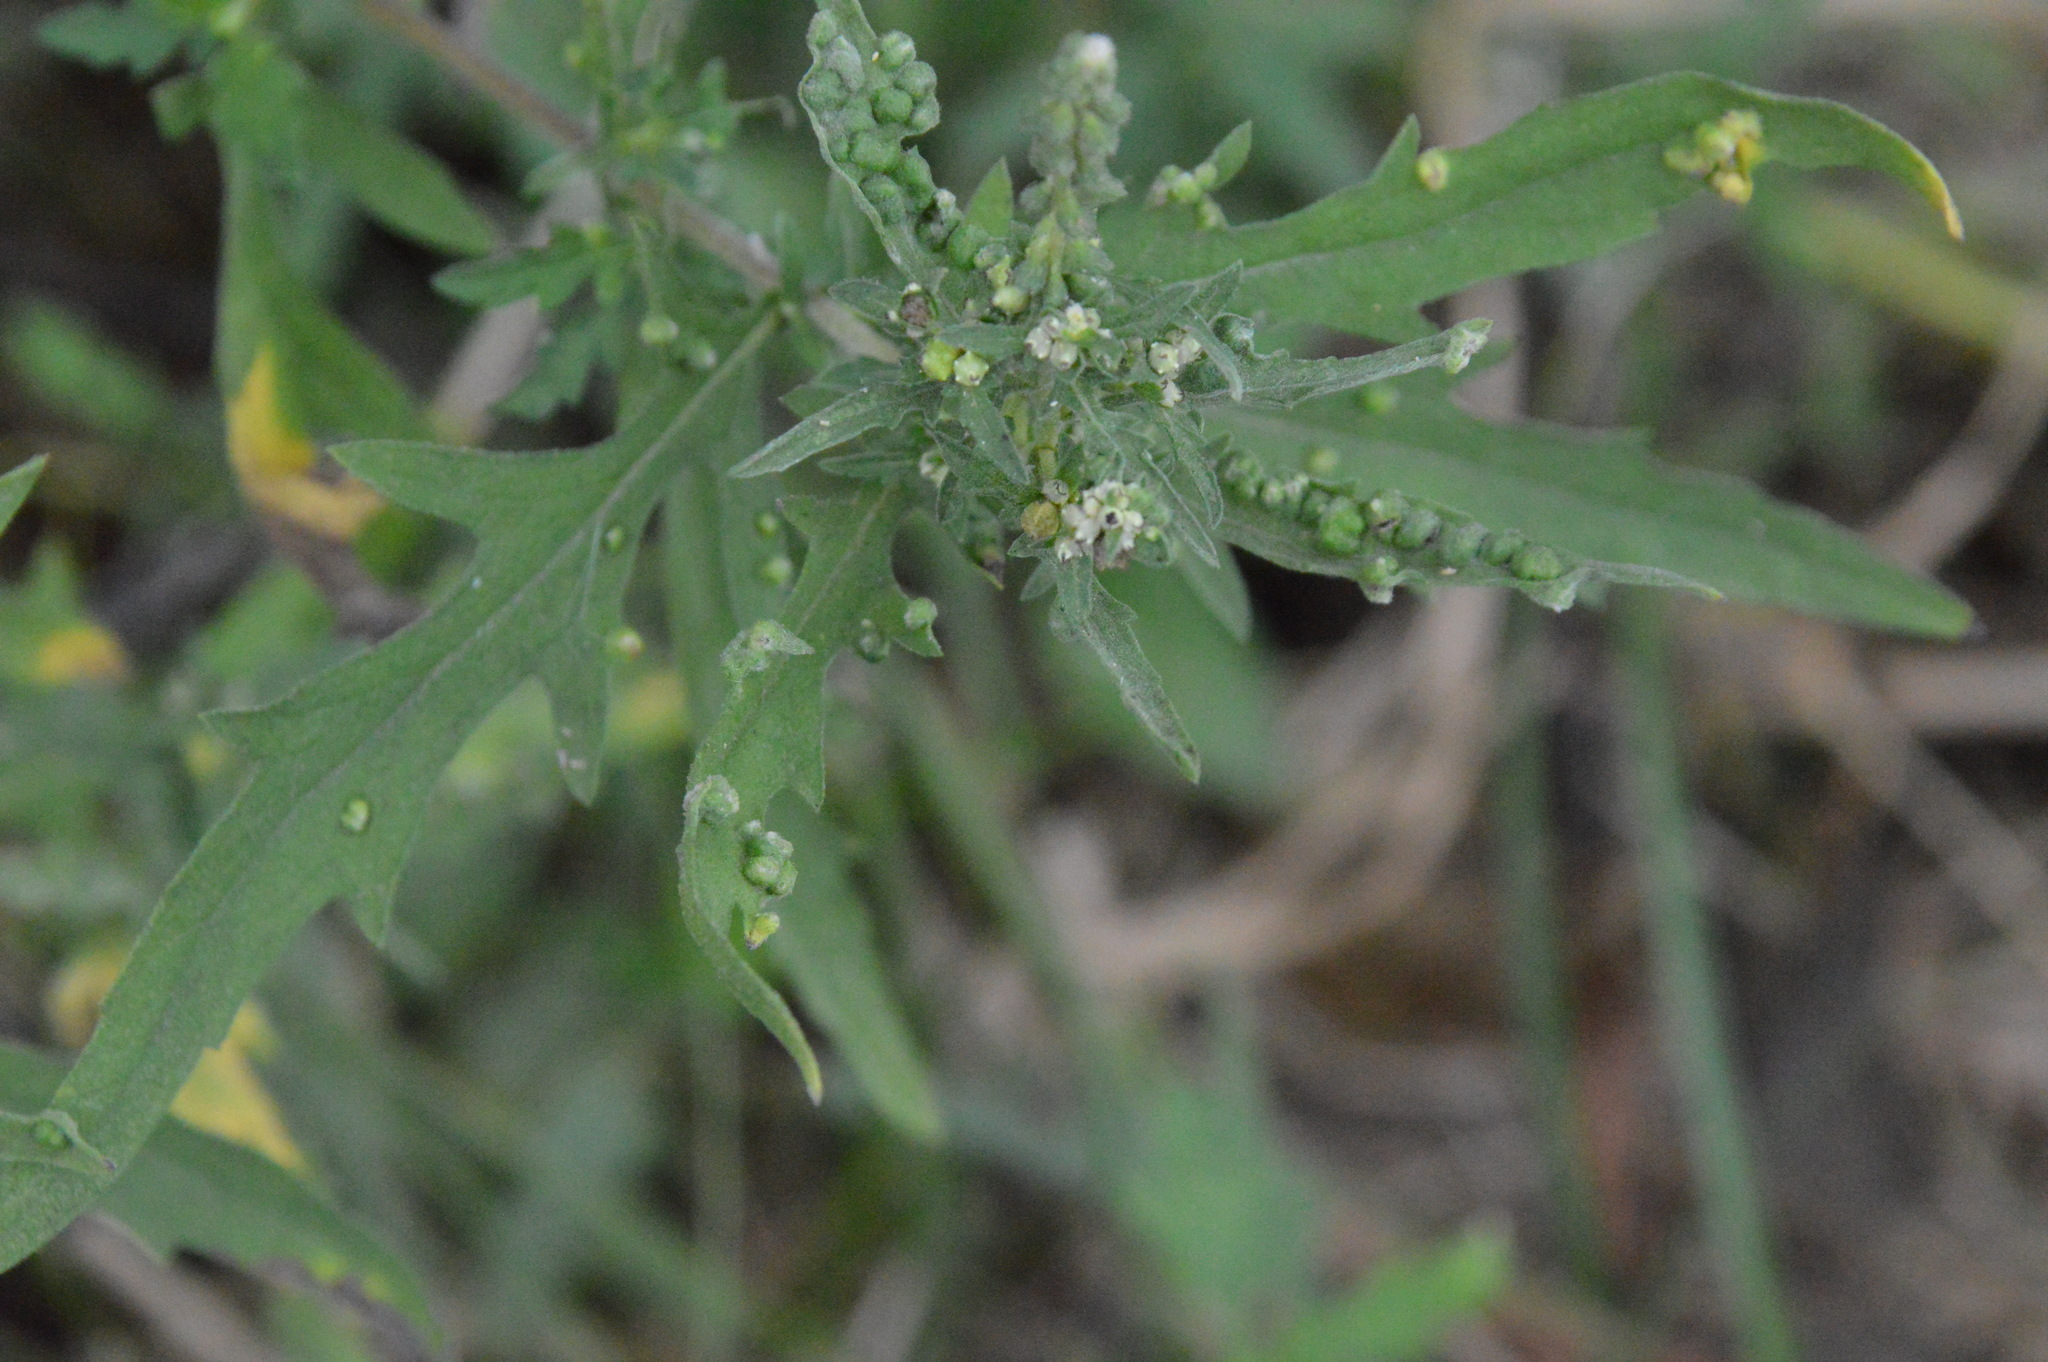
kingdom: Animalia
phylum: Arthropoda
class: Arachnida
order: Trombidiformes
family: Eriophyidae
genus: Aceria
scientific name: Aceria
